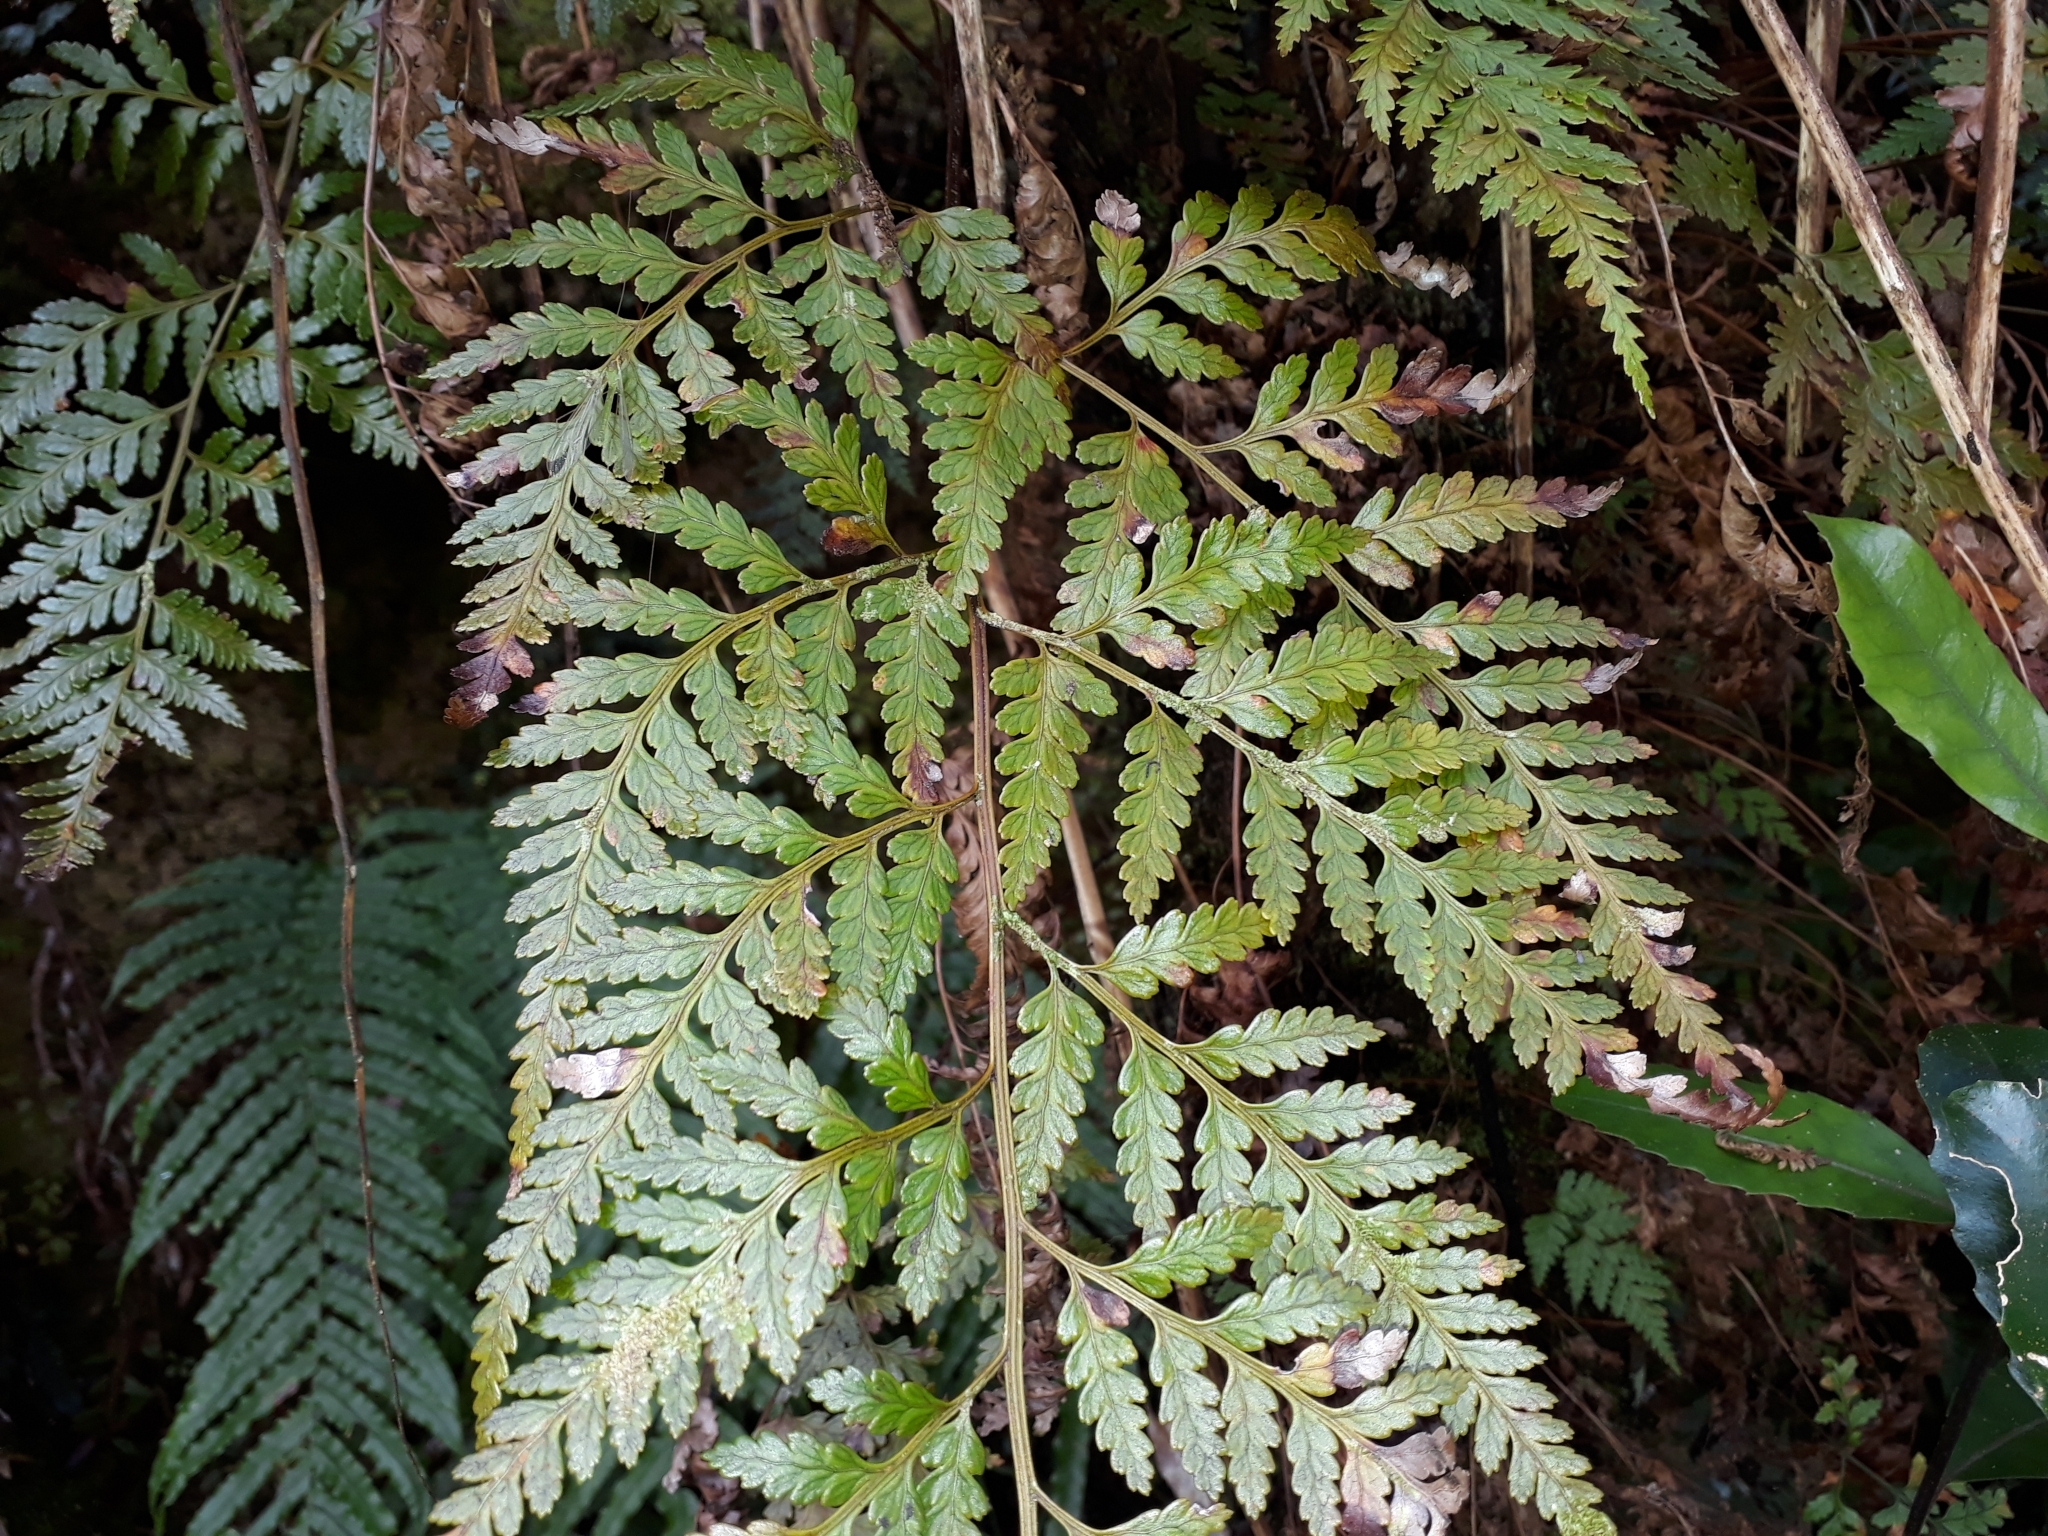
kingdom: Plantae
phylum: Tracheophyta
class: Polypodiopsida
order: Polypodiales
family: Dryopteridaceae
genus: Rumohra
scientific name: Rumohra adiantiformis
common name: Leather fern
